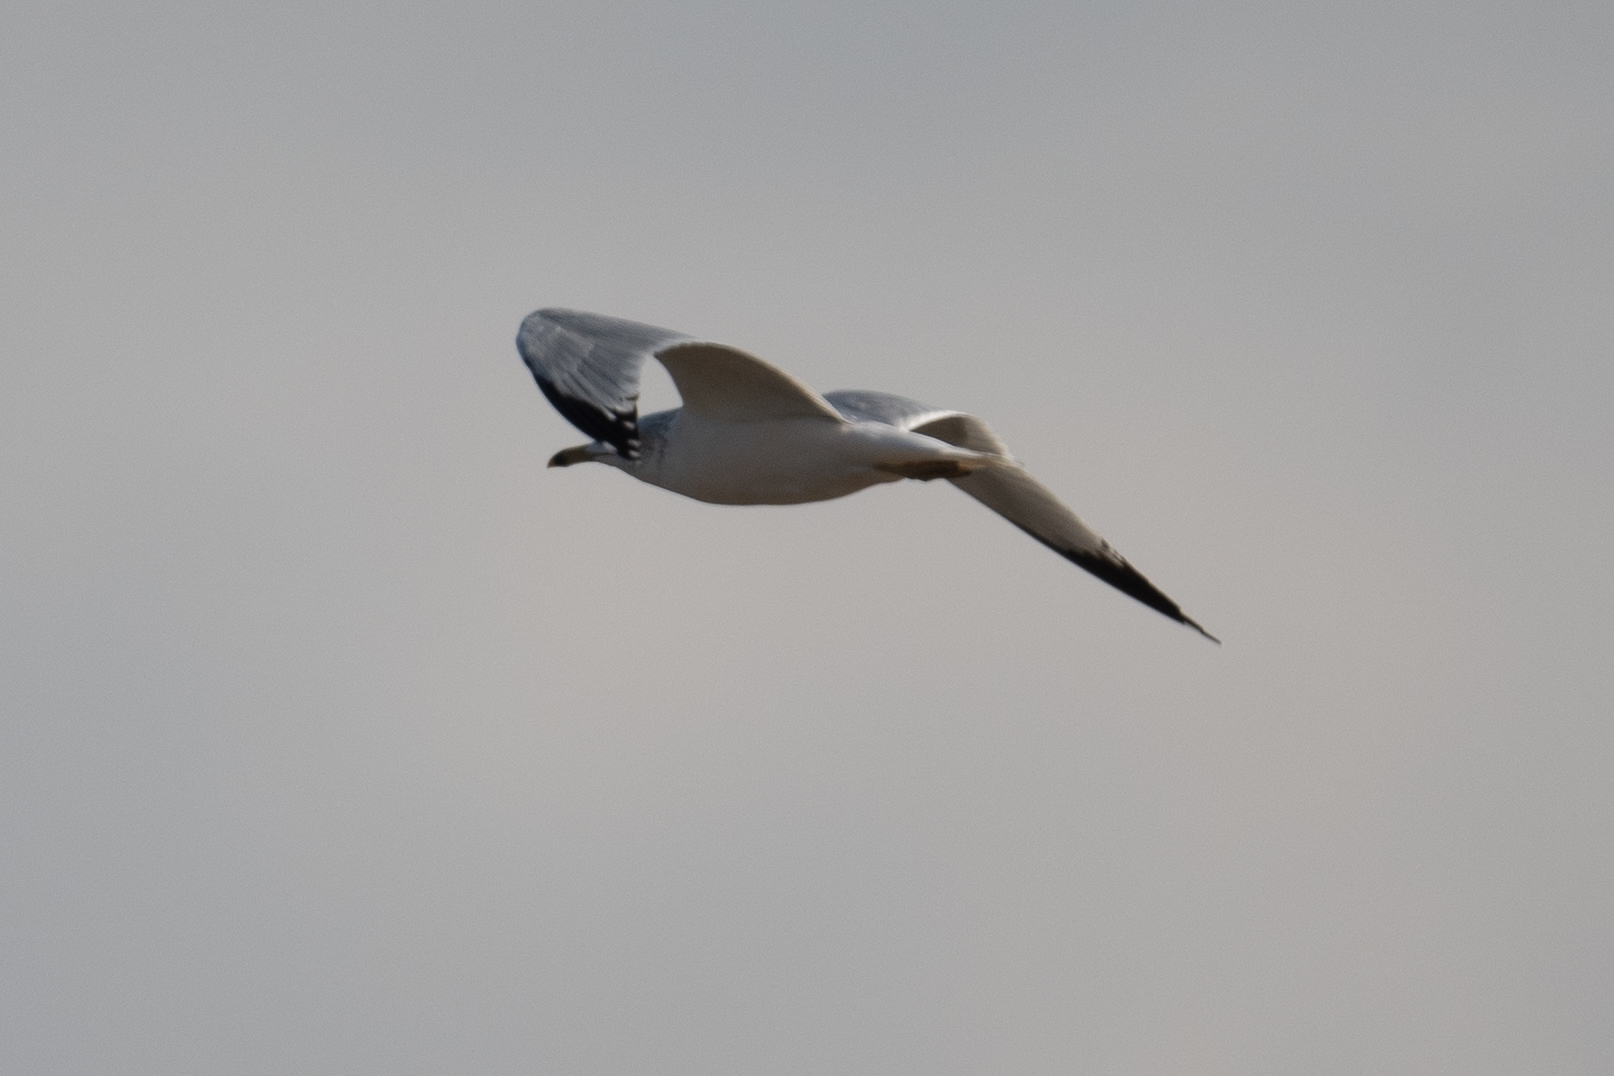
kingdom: Animalia
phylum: Chordata
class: Aves
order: Charadriiformes
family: Laridae
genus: Larus
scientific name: Larus delawarensis
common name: Ring-billed gull
